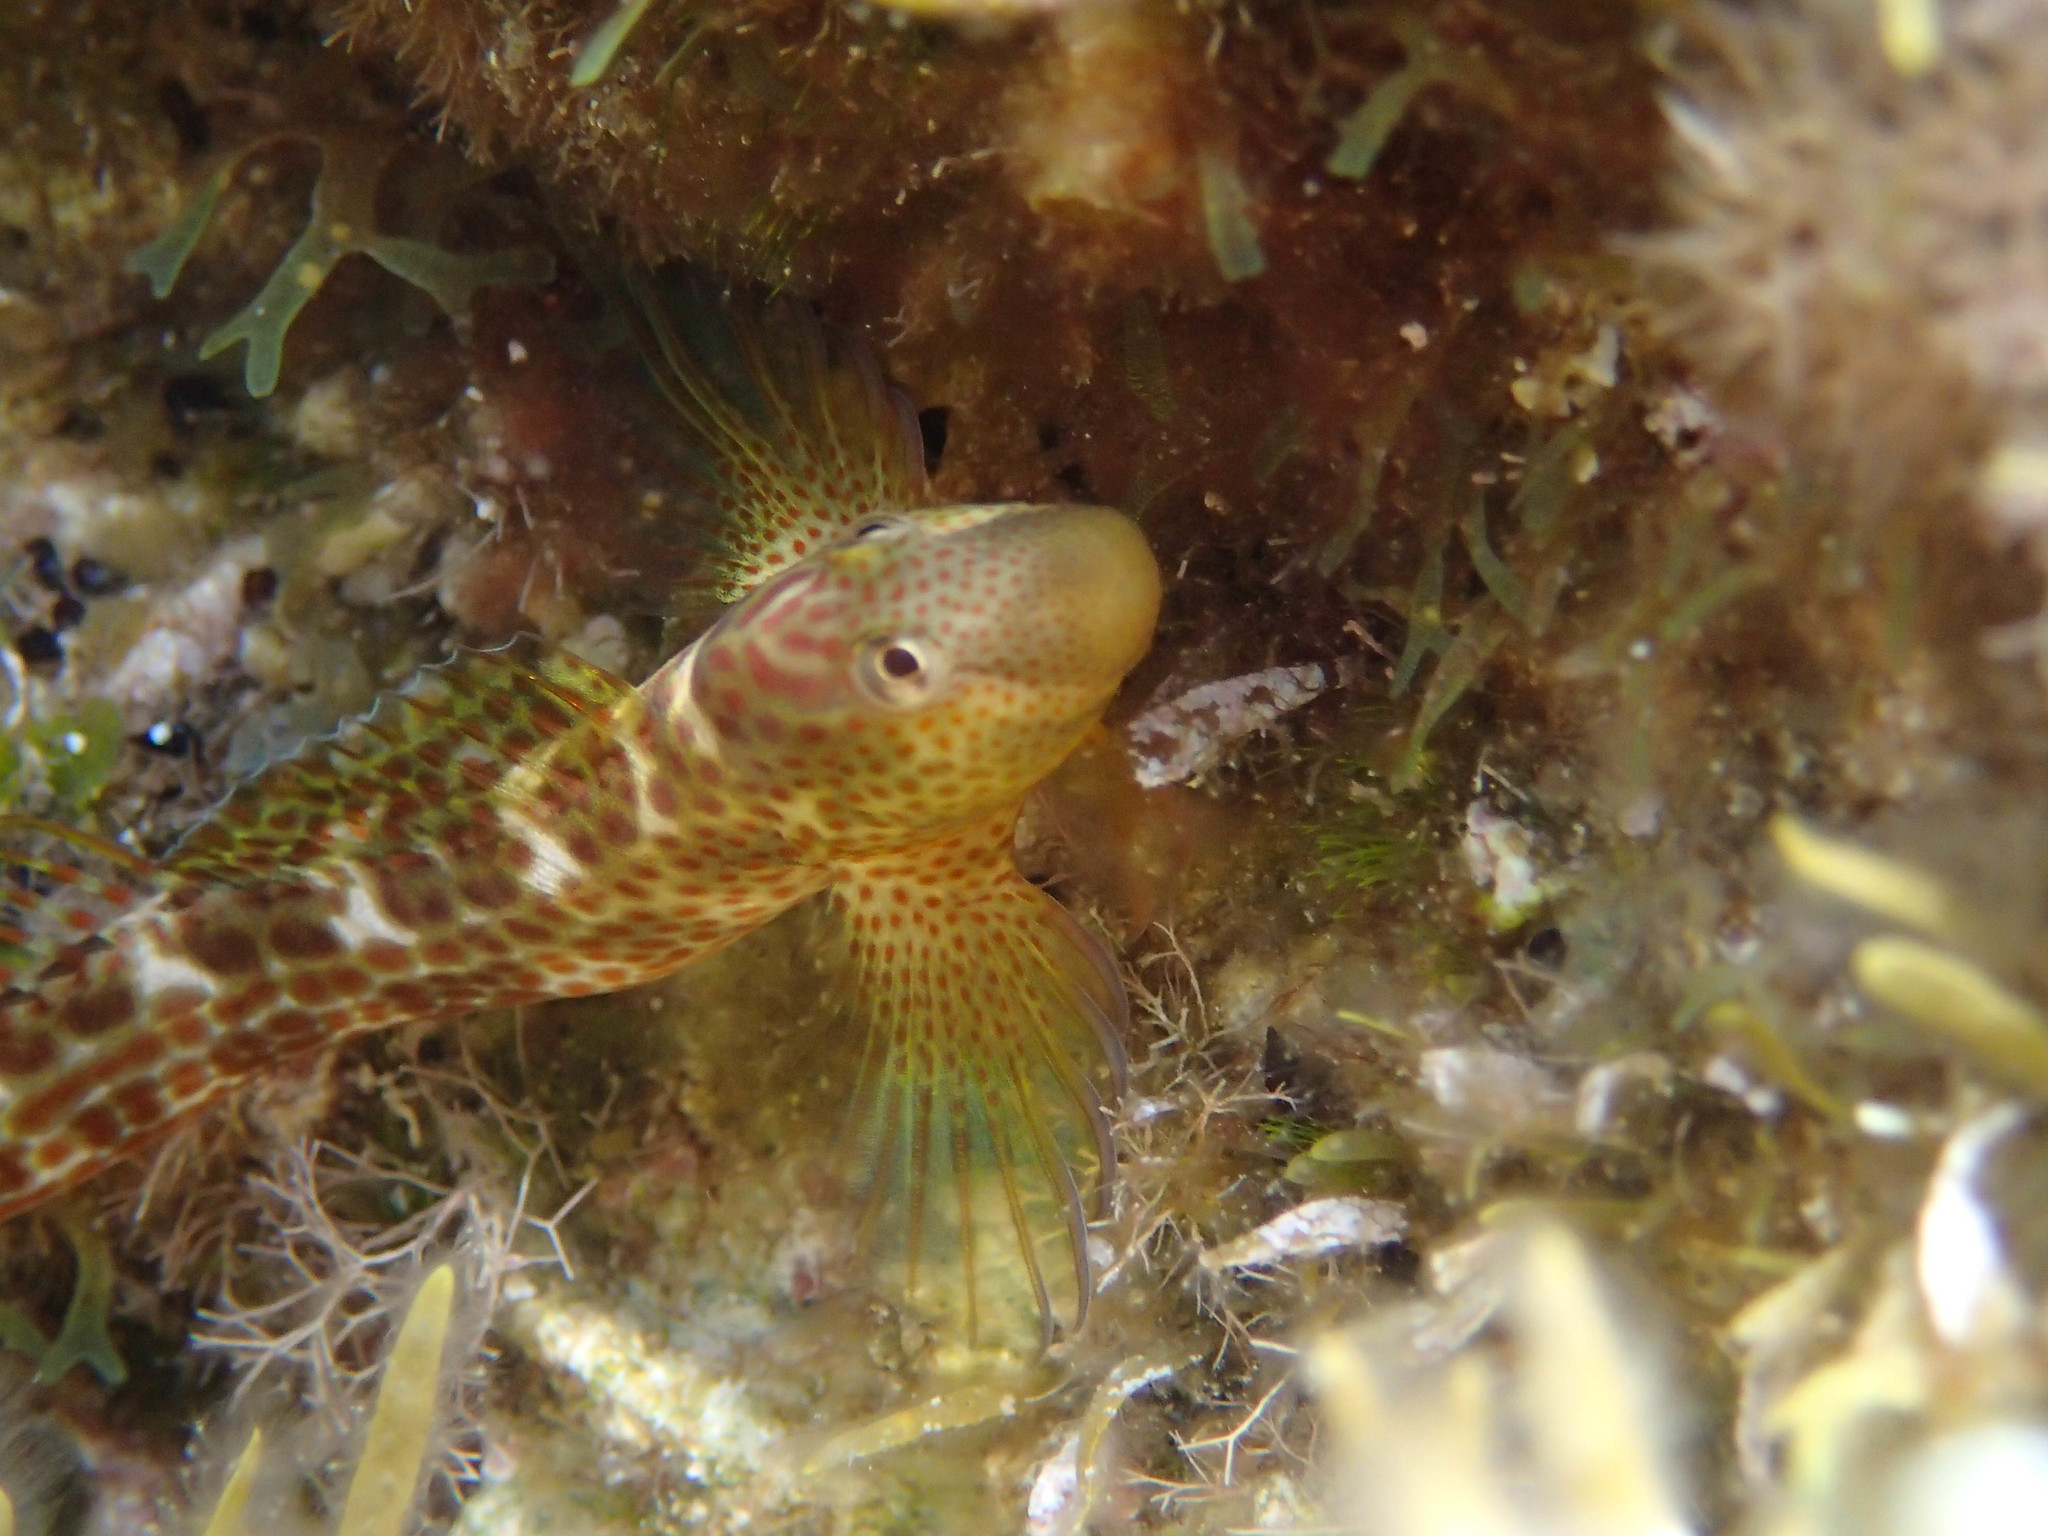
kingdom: Animalia
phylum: Chordata
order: Perciformes
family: Blenniidae
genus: Microlipophrys
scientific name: Microlipophrys canevae
